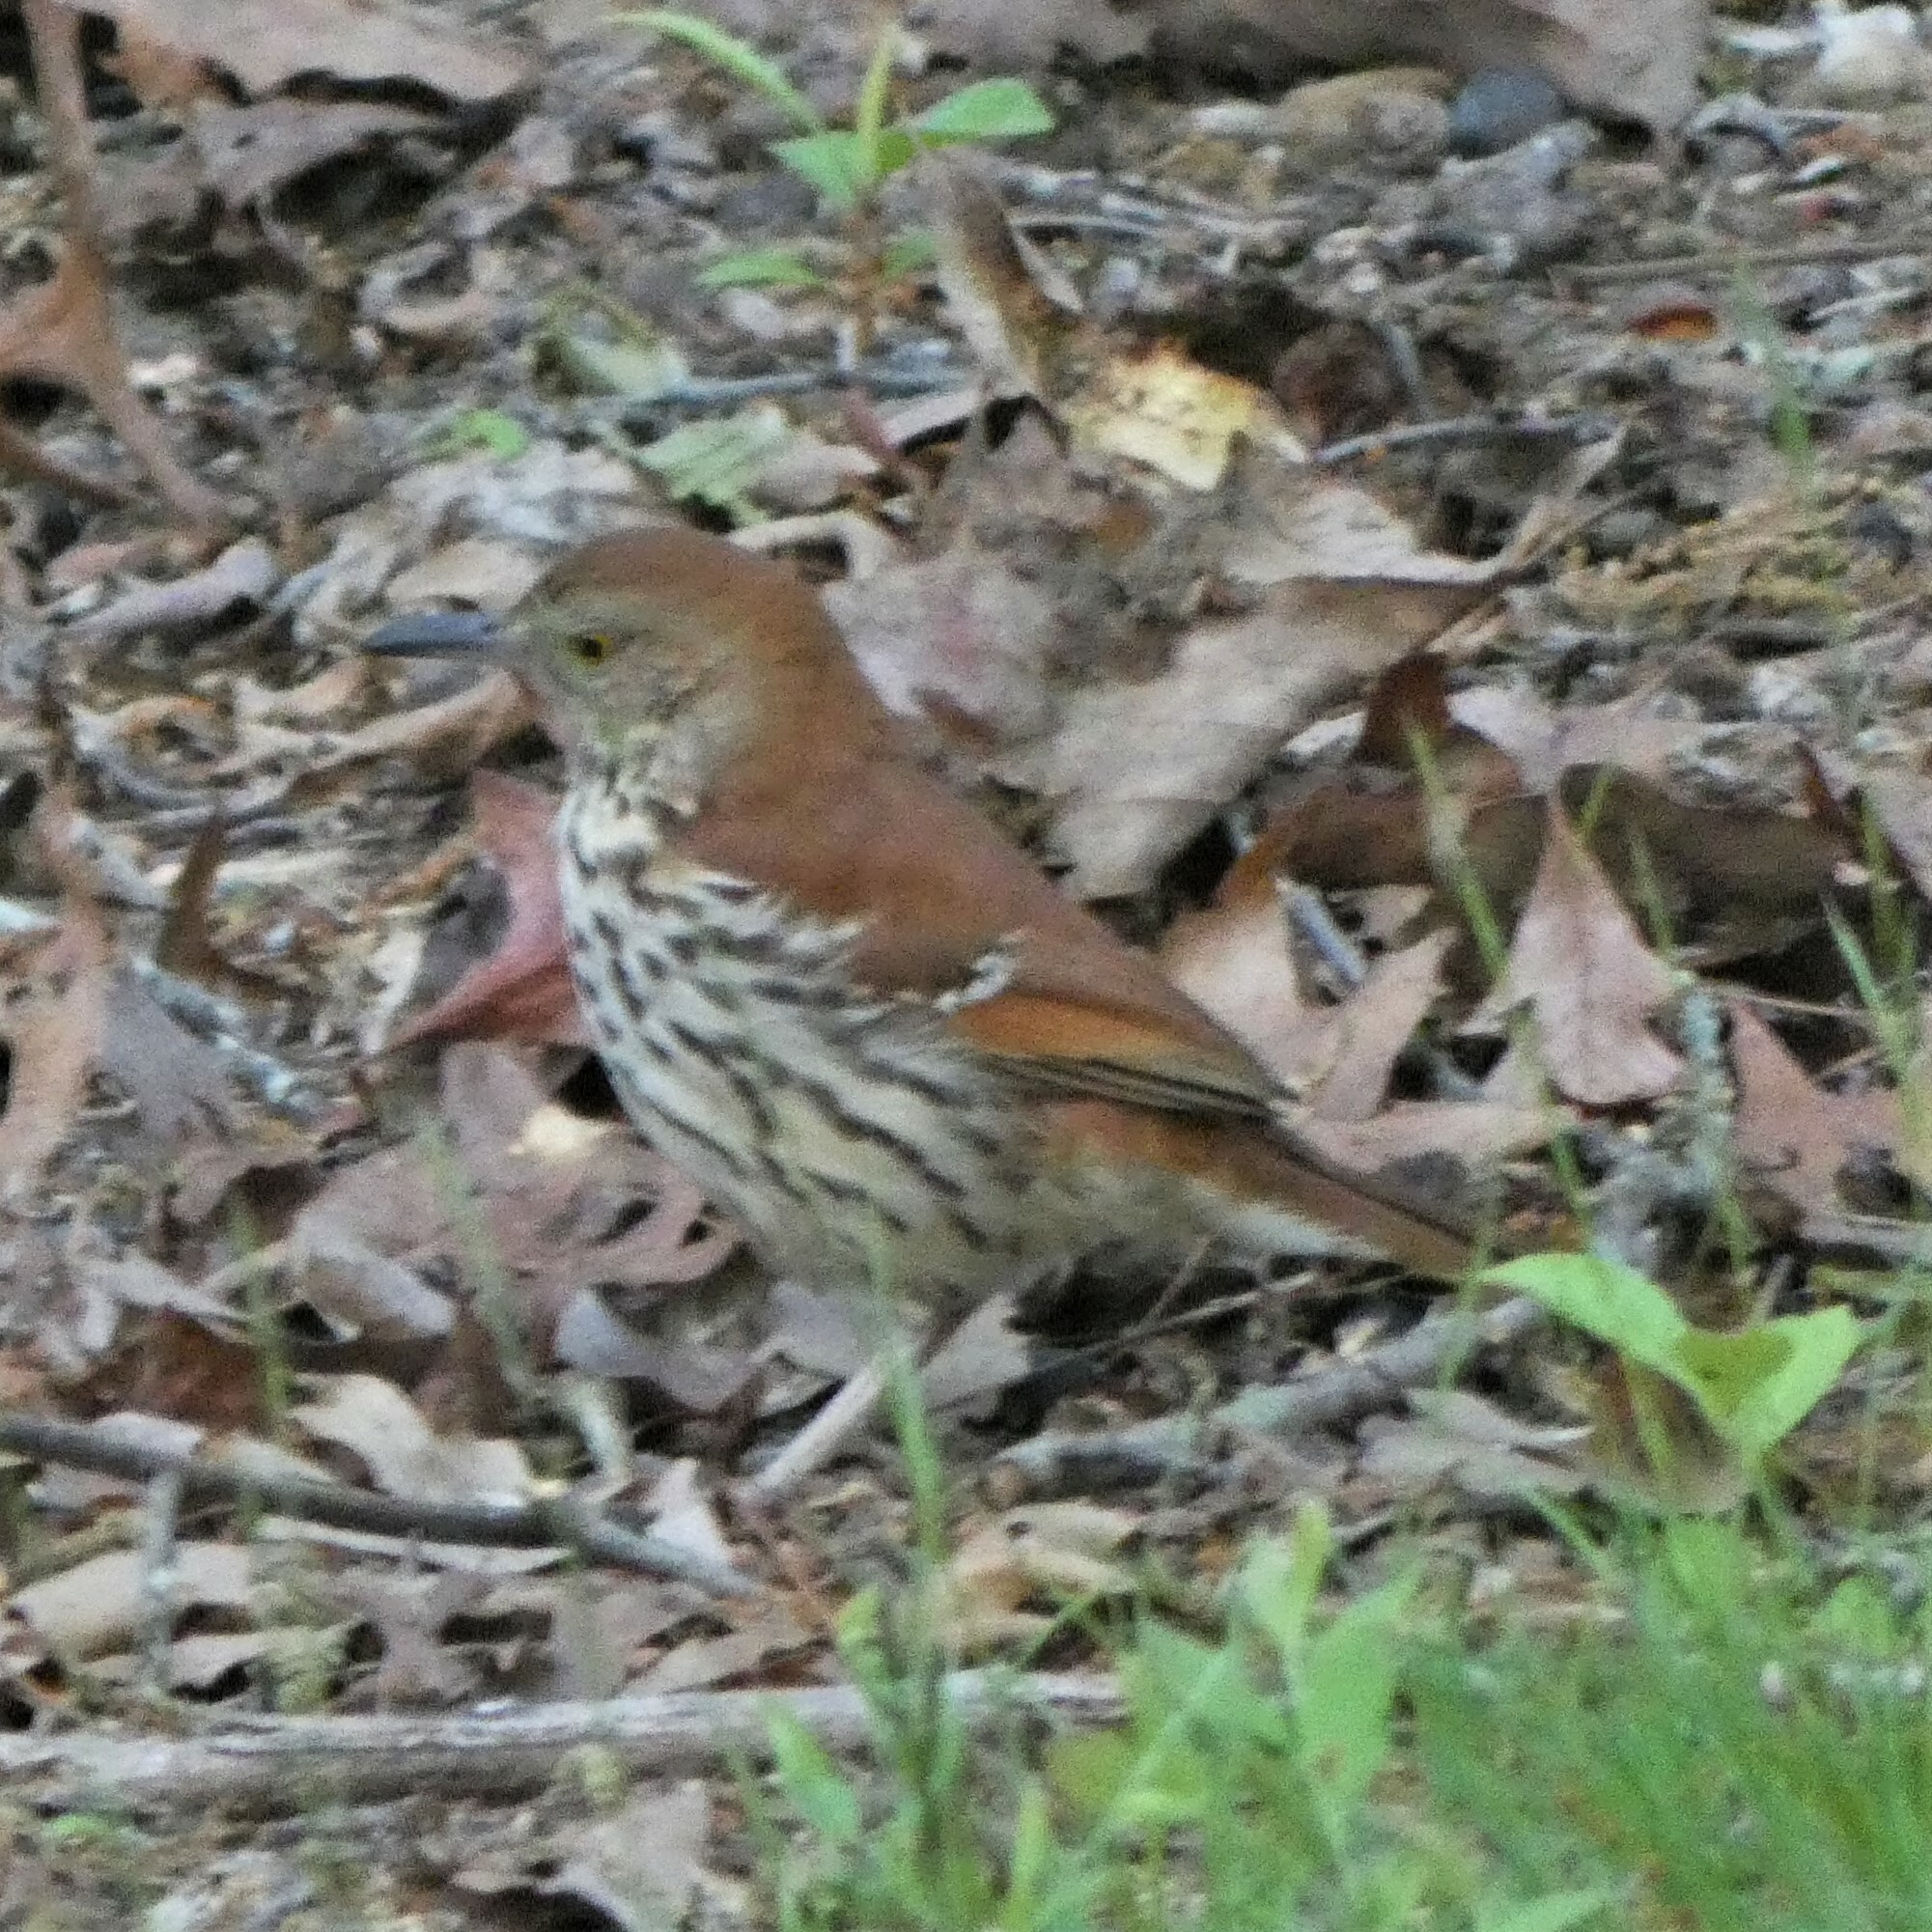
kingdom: Animalia
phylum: Chordata
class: Aves
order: Passeriformes
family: Mimidae
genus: Toxostoma
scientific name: Toxostoma rufum
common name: Brown thrasher
